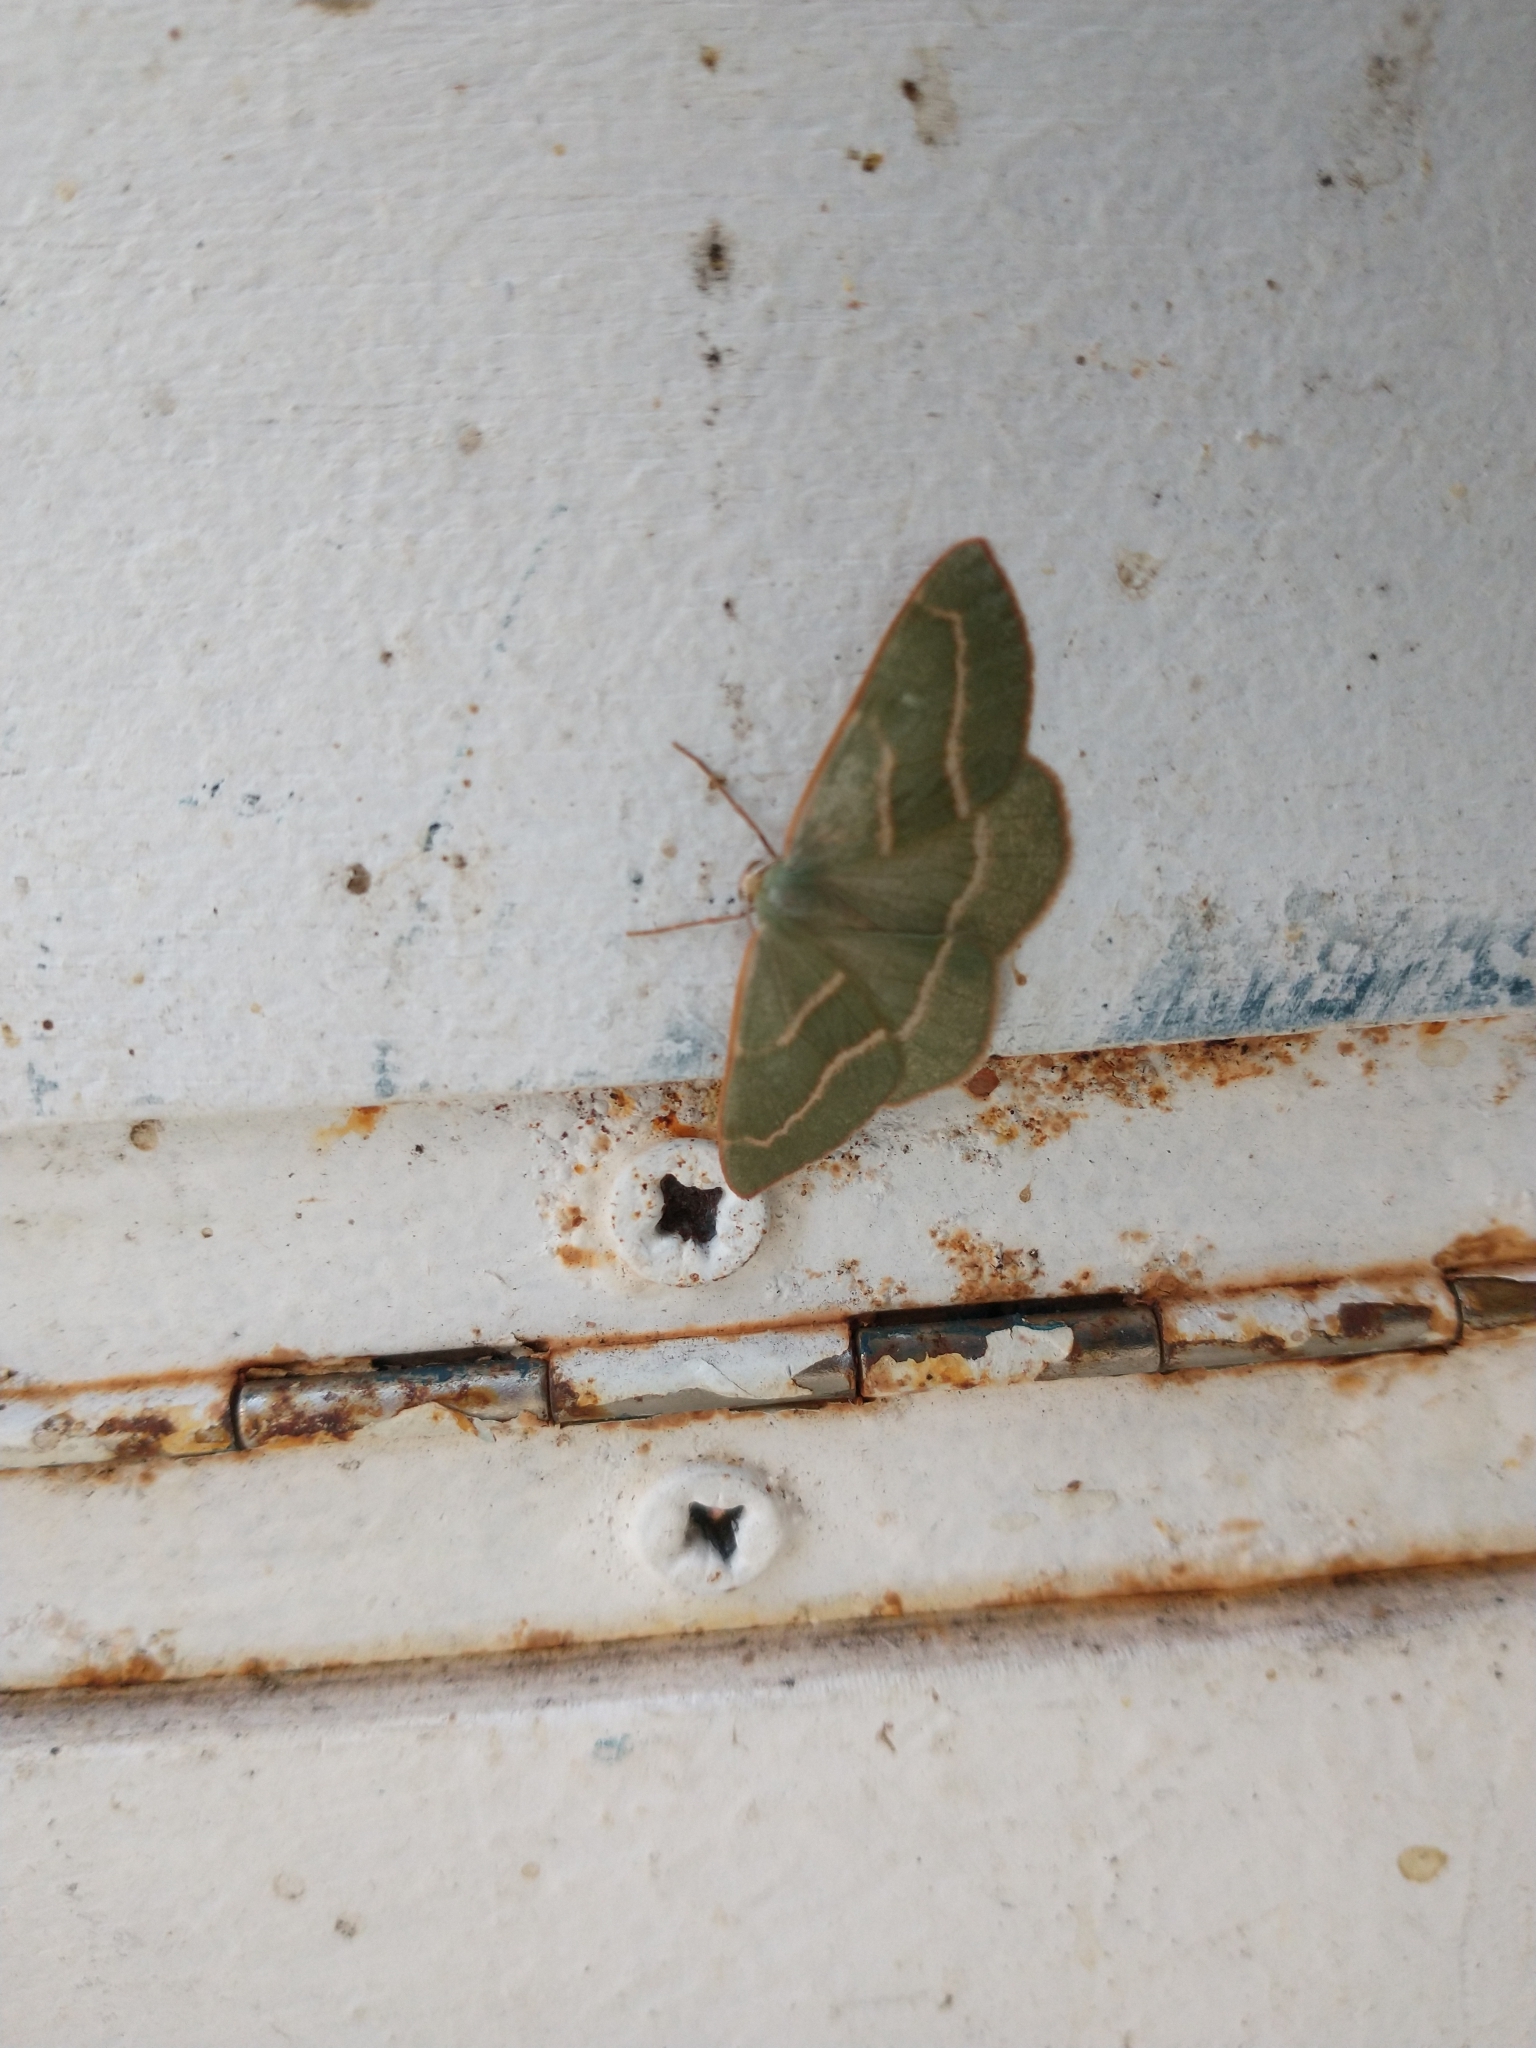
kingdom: Animalia
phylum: Arthropoda
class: Insecta
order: Lepidoptera
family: Geometridae
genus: Hylaea
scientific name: Hylaea fasciaria
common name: Barred red
